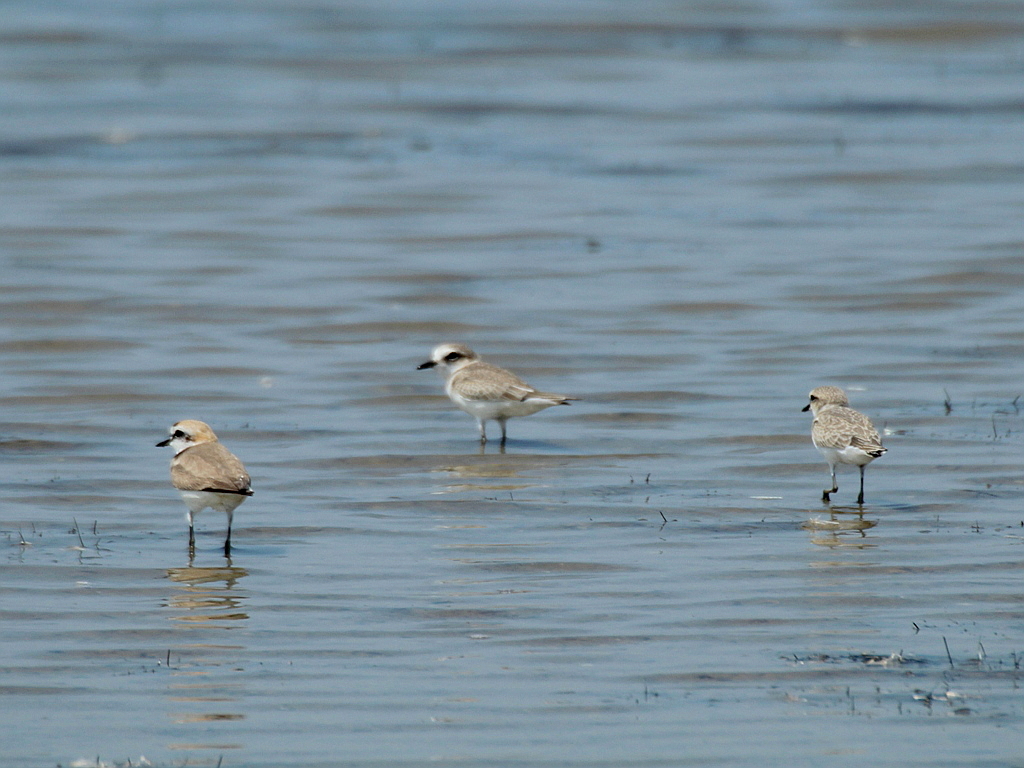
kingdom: Animalia
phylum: Chordata
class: Aves
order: Charadriiformes
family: Charadriidae
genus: Charadrius
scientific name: Charadrius alexandrinus
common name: Kentish plover
